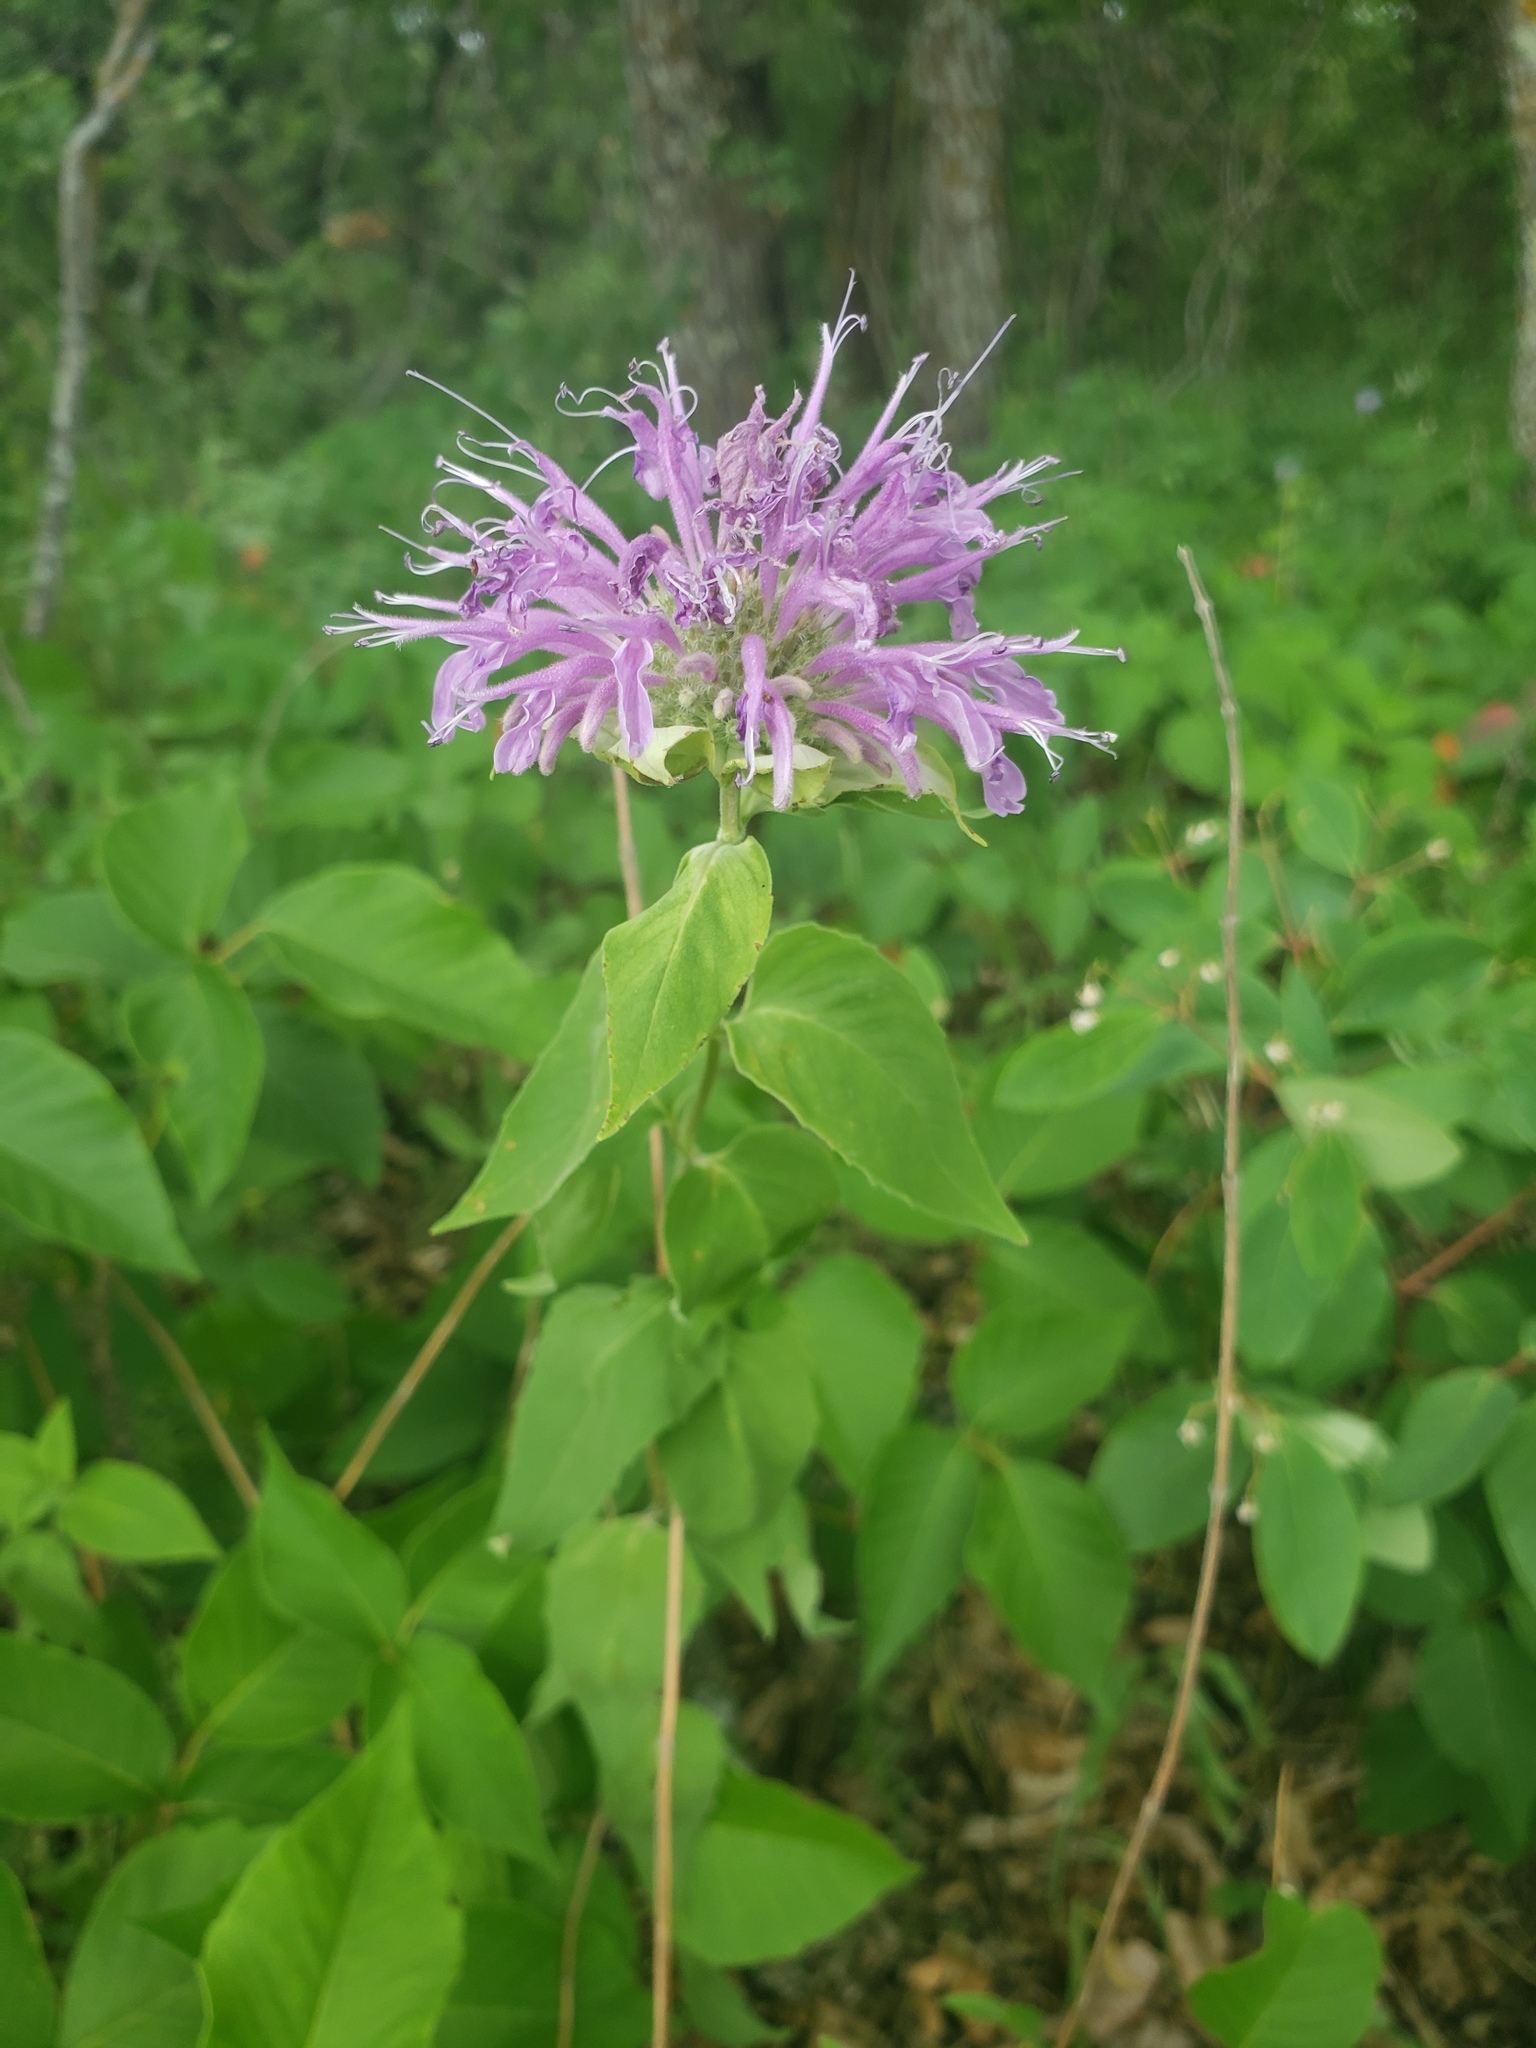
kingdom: Plantae
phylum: Tracheophyta
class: Magnoliopsida
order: Lamiales
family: Lamiaceae
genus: Monarda
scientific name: Monarda fistulosa
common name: Purple beebalm
